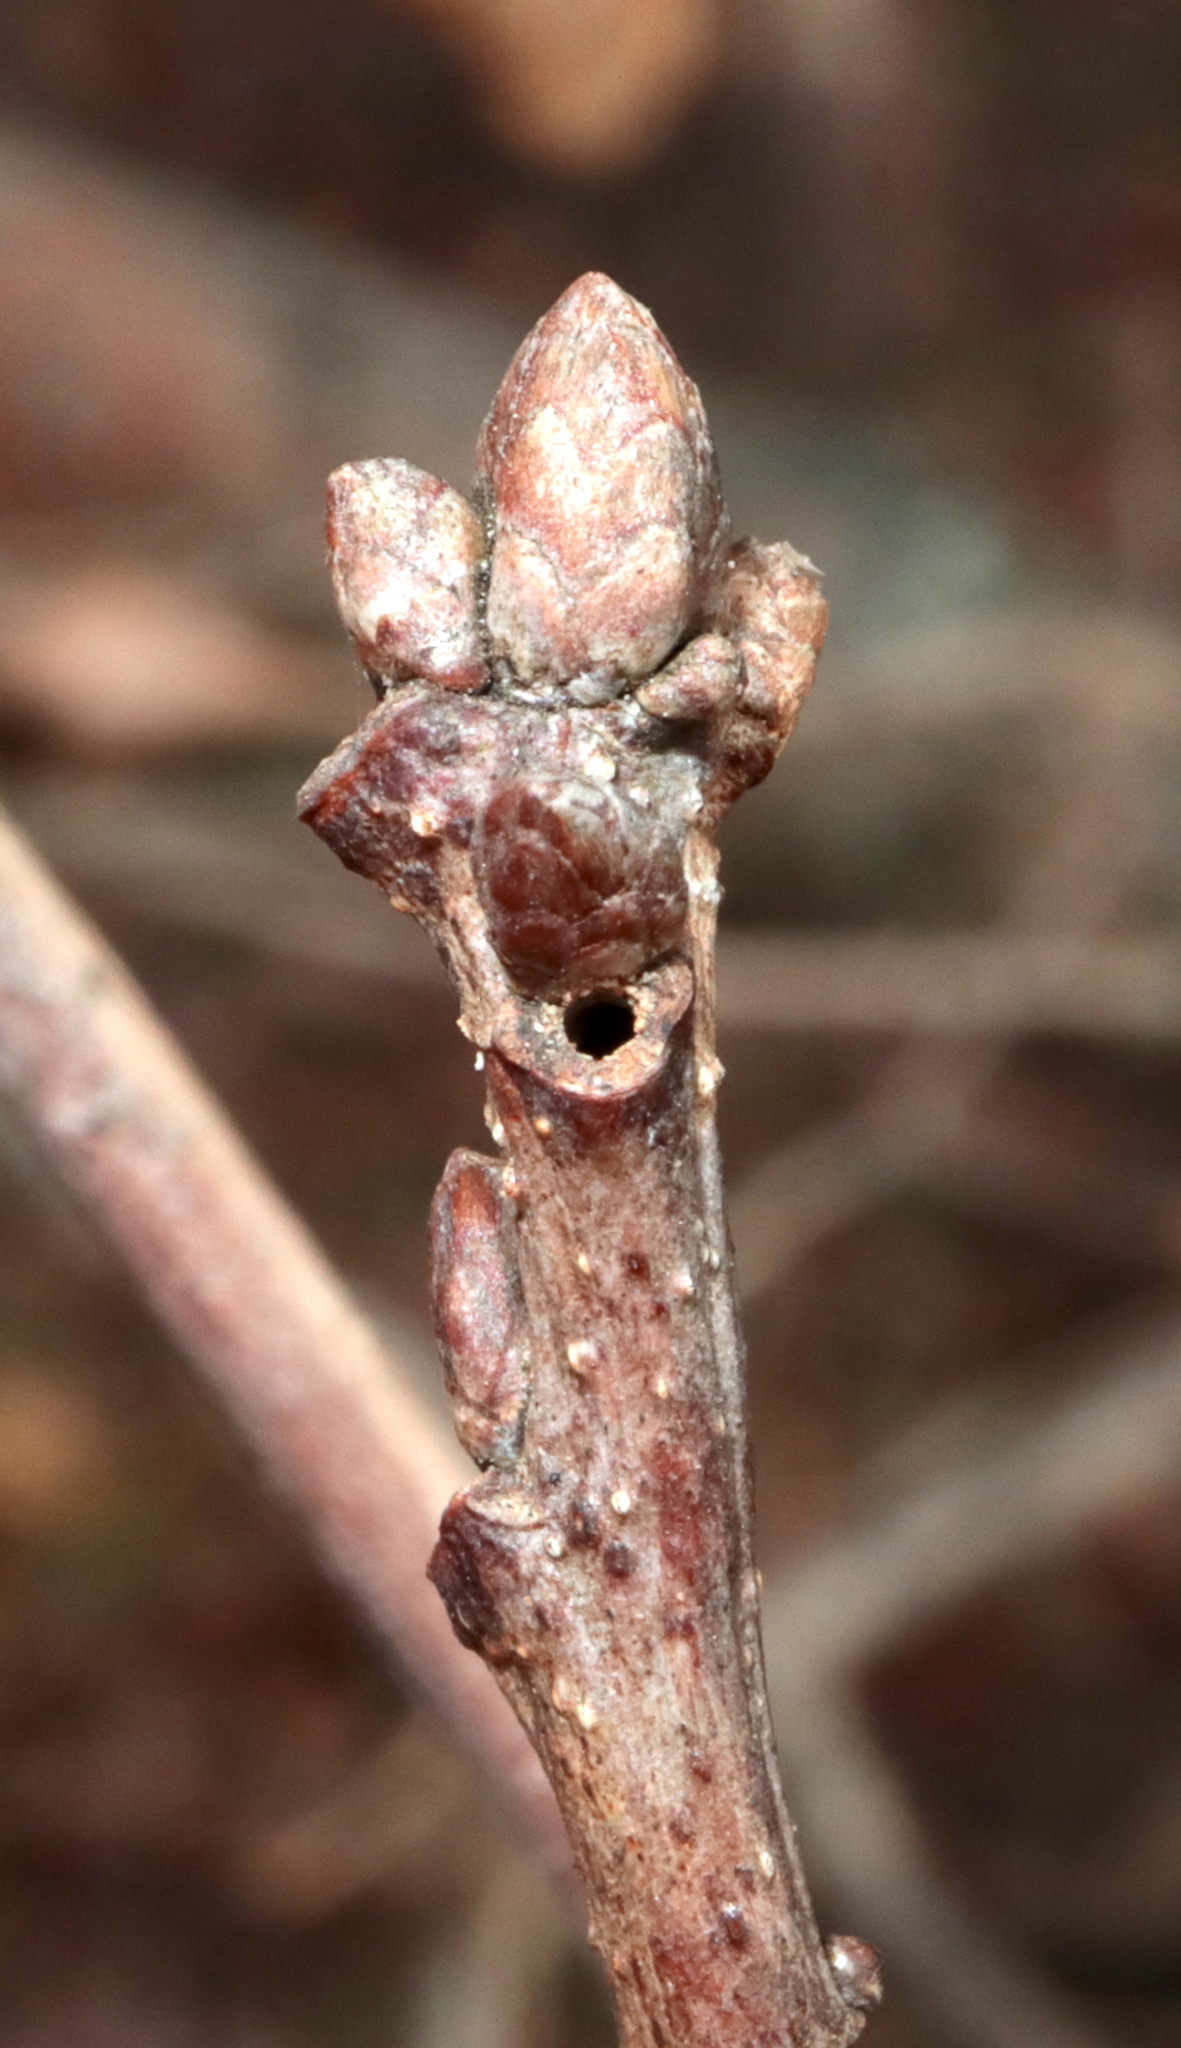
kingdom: Animalia
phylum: Arthropoda
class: Insecta
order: Hymenoptera
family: Cynipidae
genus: Neuroterus
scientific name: Neuroterus
